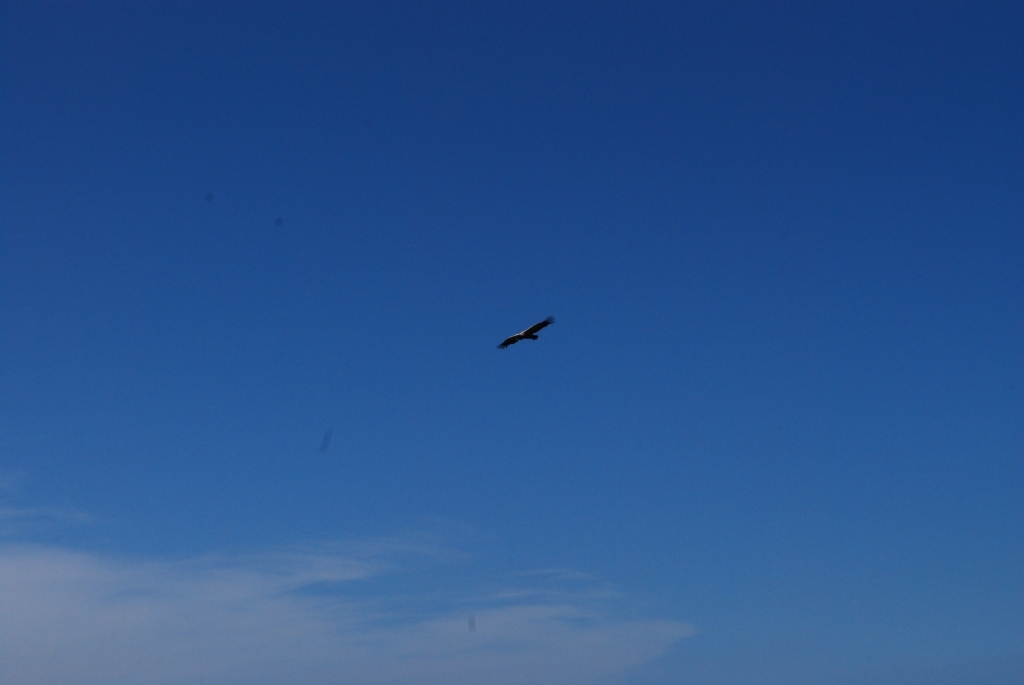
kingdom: Animalia
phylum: Chordata
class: Aves
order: Accipitriformes
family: Accipitridae
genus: Gyps
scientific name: Gyps coprotheres
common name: Cape vulture
